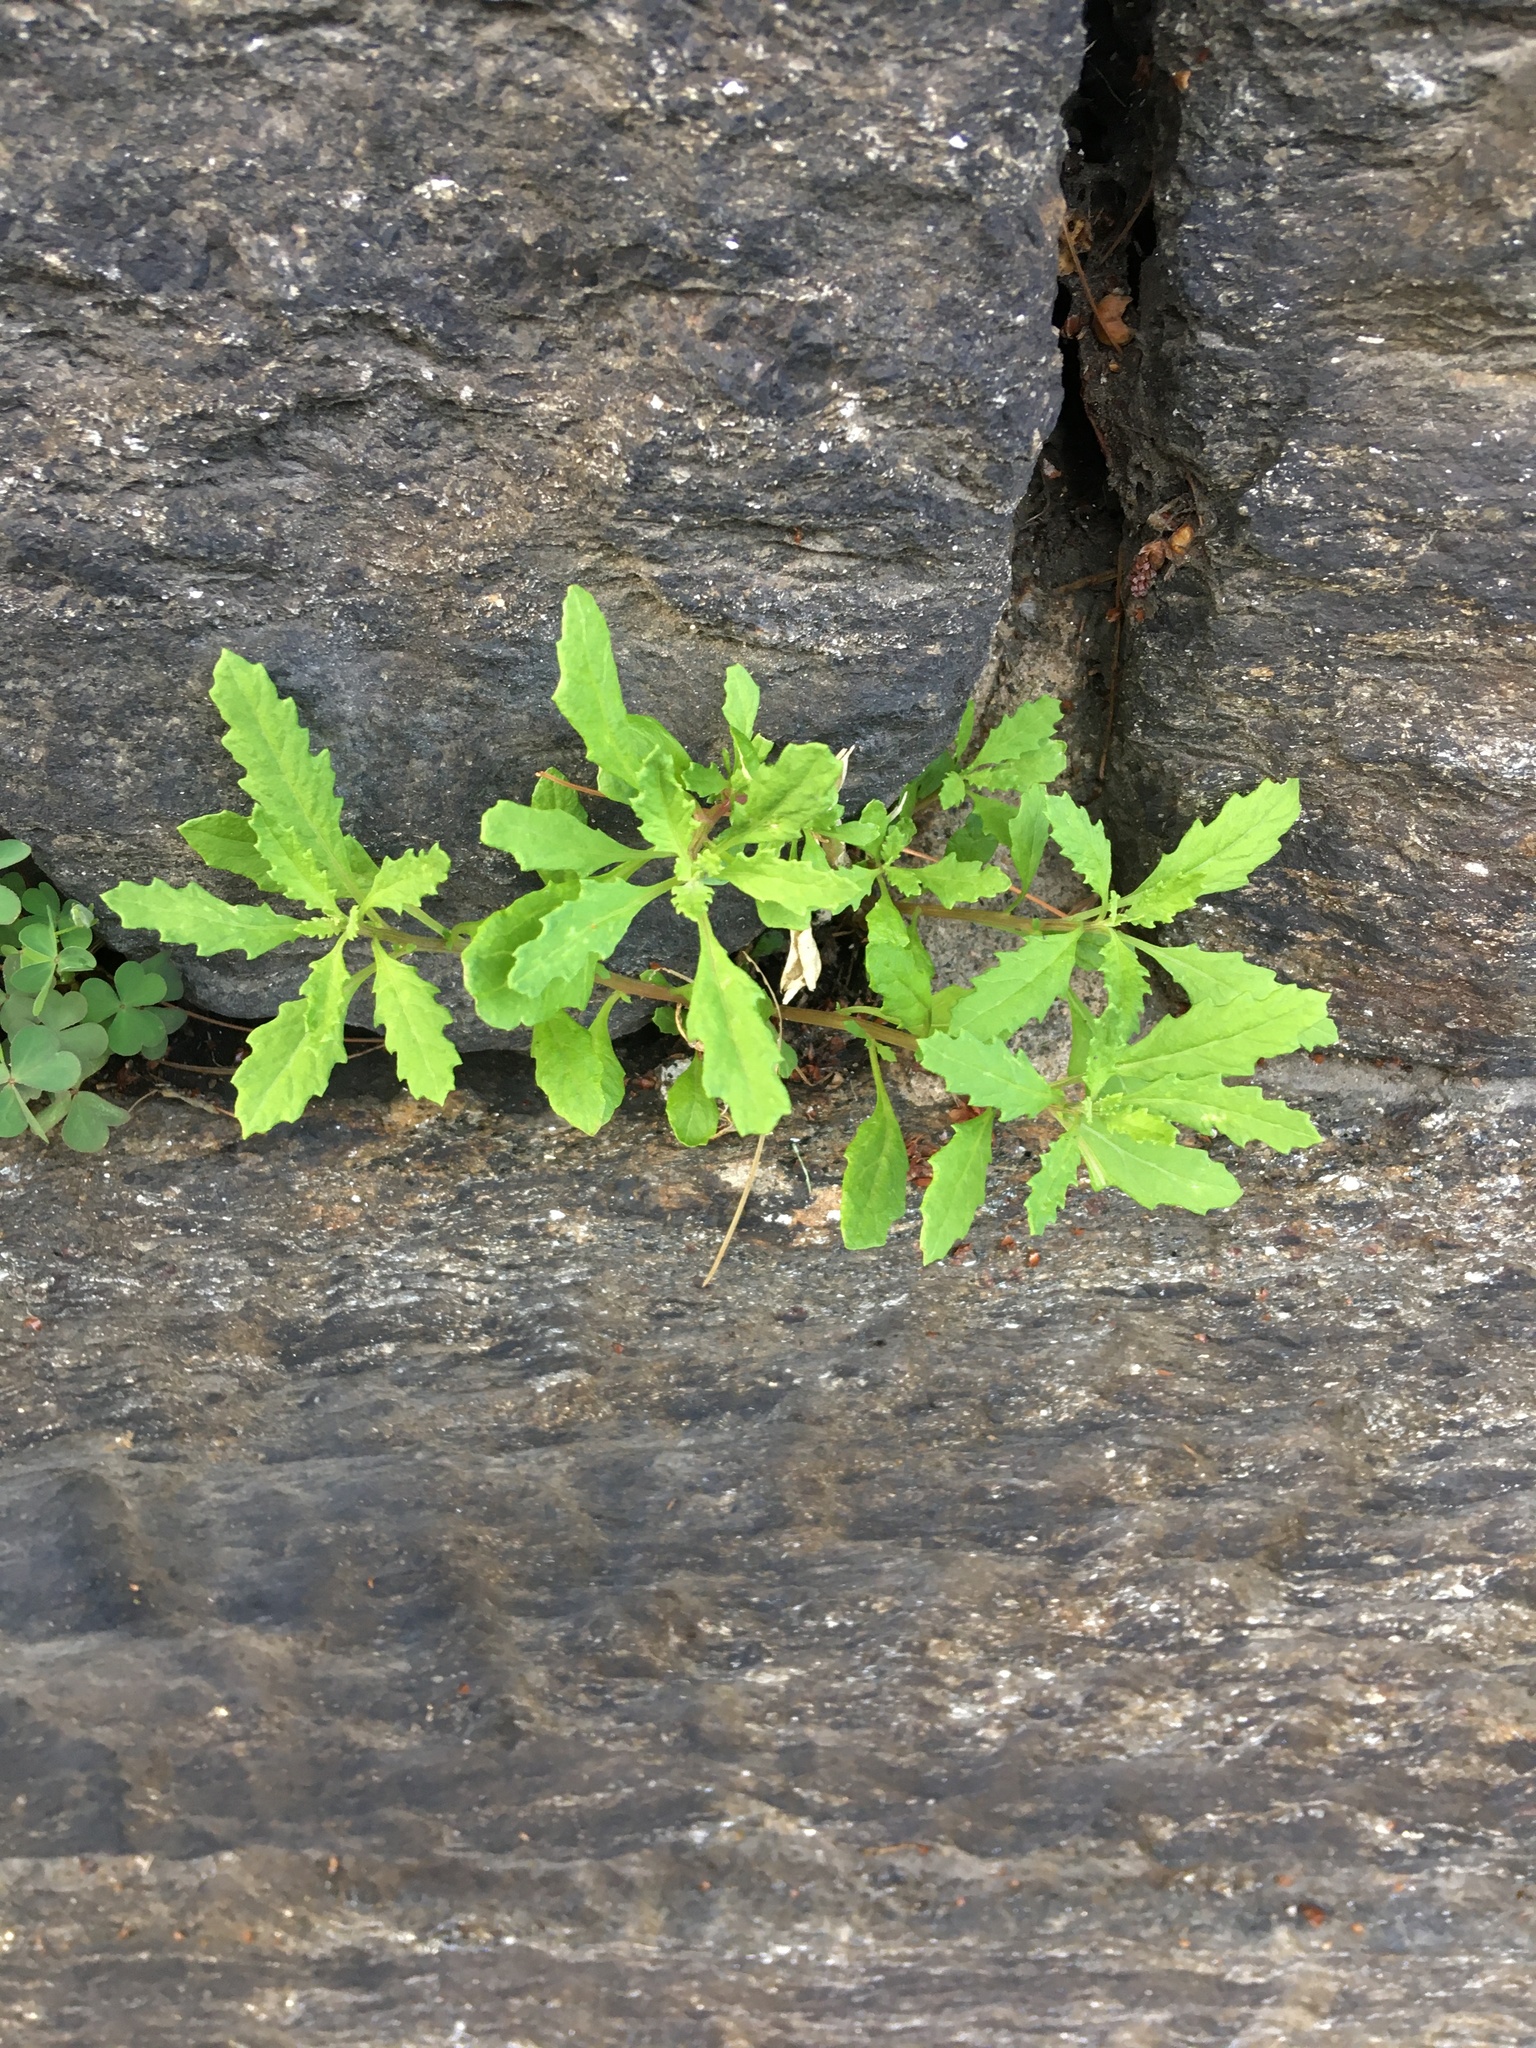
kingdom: Plantae
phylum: Tracheophyta
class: Magnoliopsida
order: Caryophyllales
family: Amaranthaceae
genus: Dysphania
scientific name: Dysphania ambrosioides
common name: Wormseed
